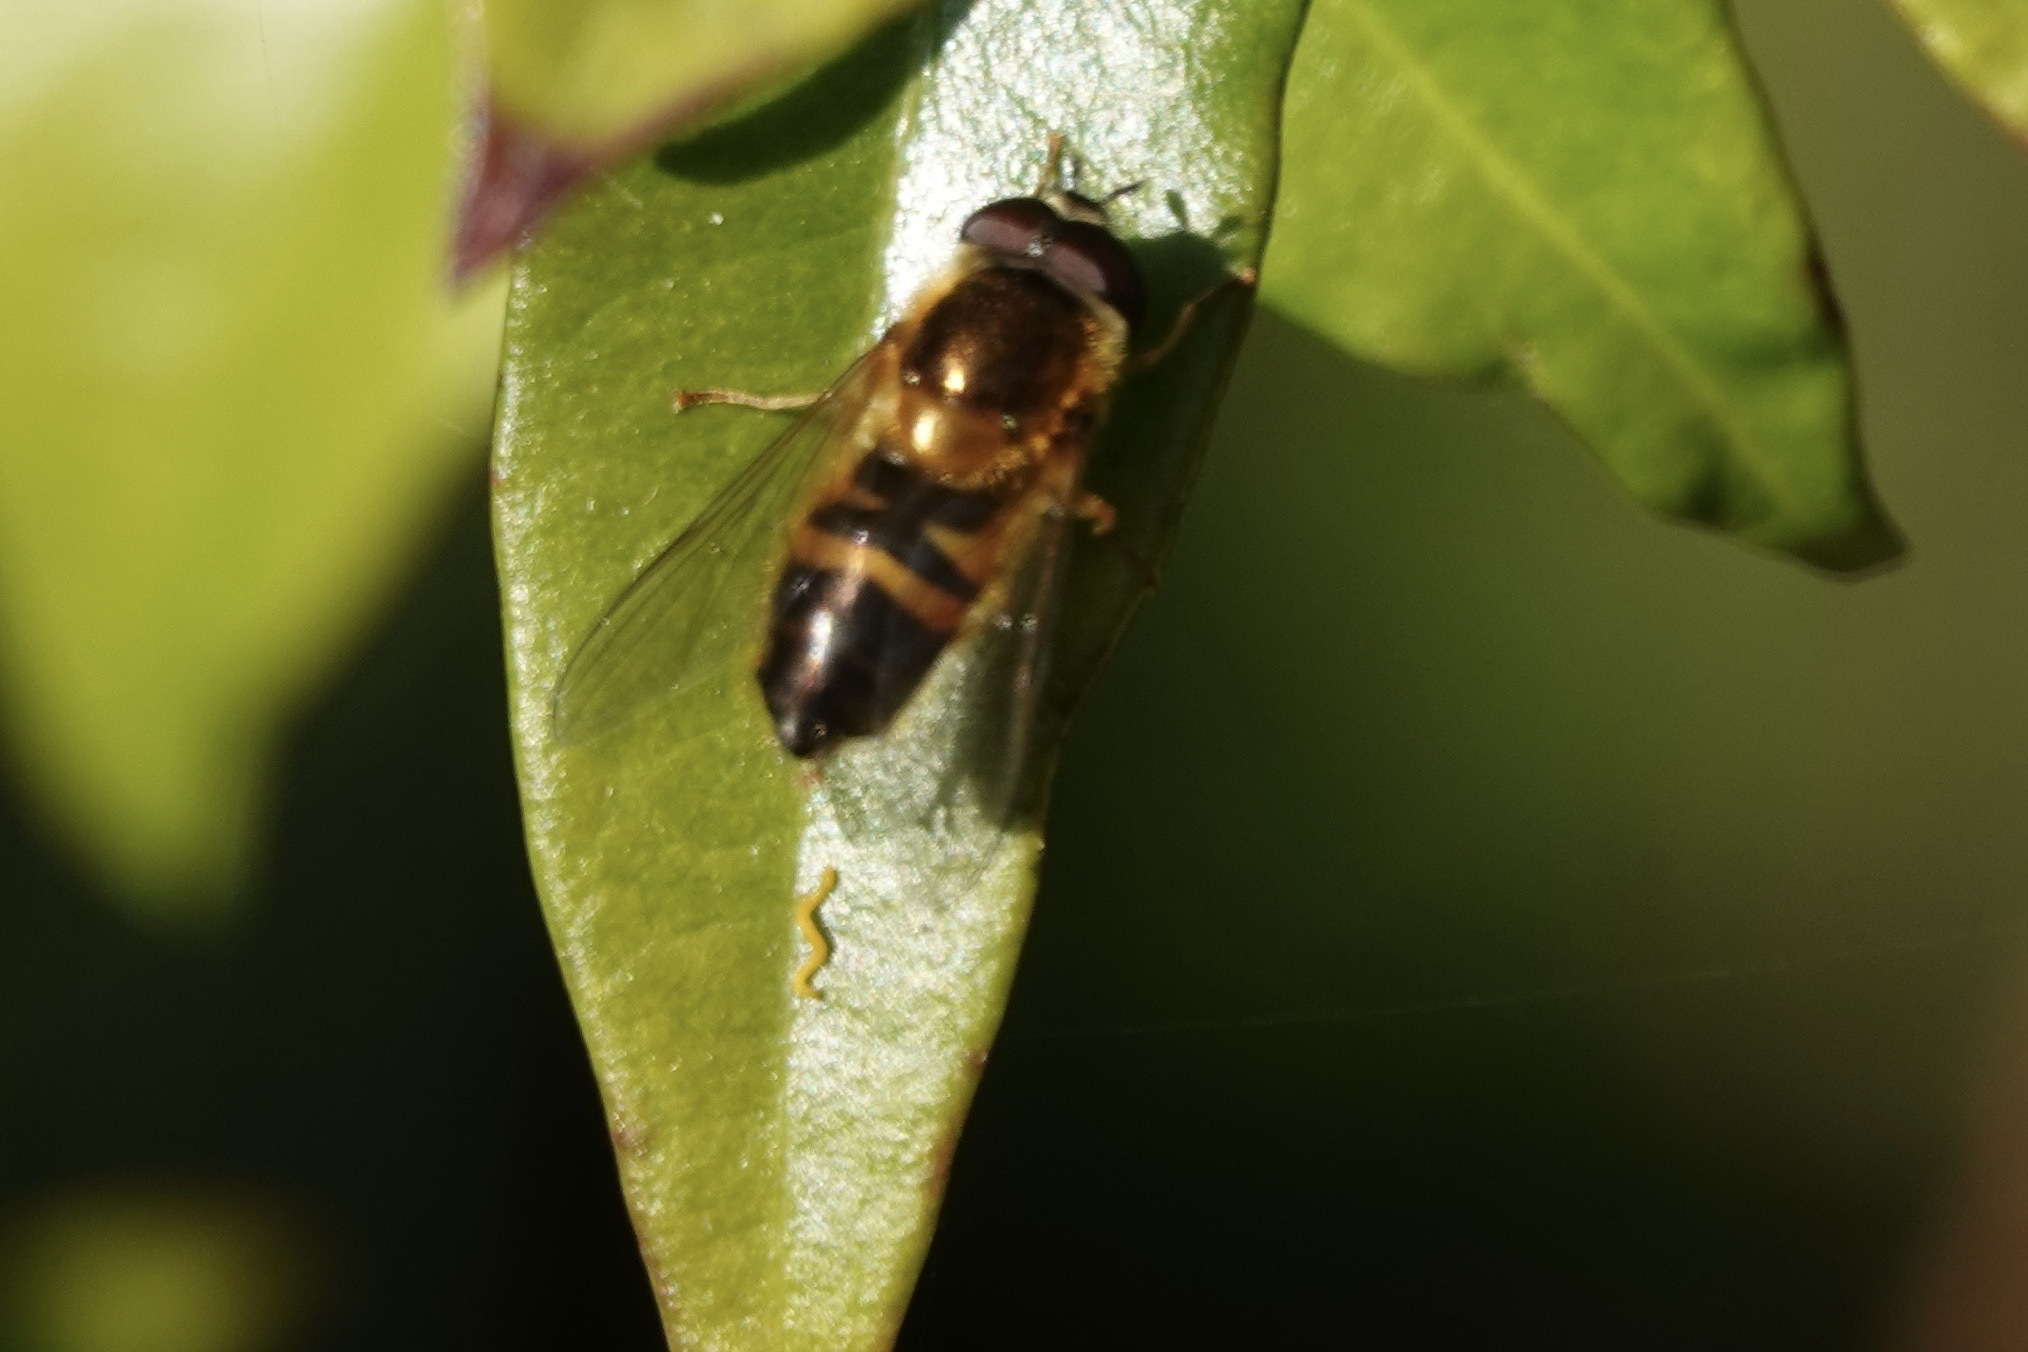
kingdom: Animalia
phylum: Arthropoda
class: Insecta
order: Diptera
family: Syrphidae
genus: Epistrophe
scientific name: Epistrophe eligans
